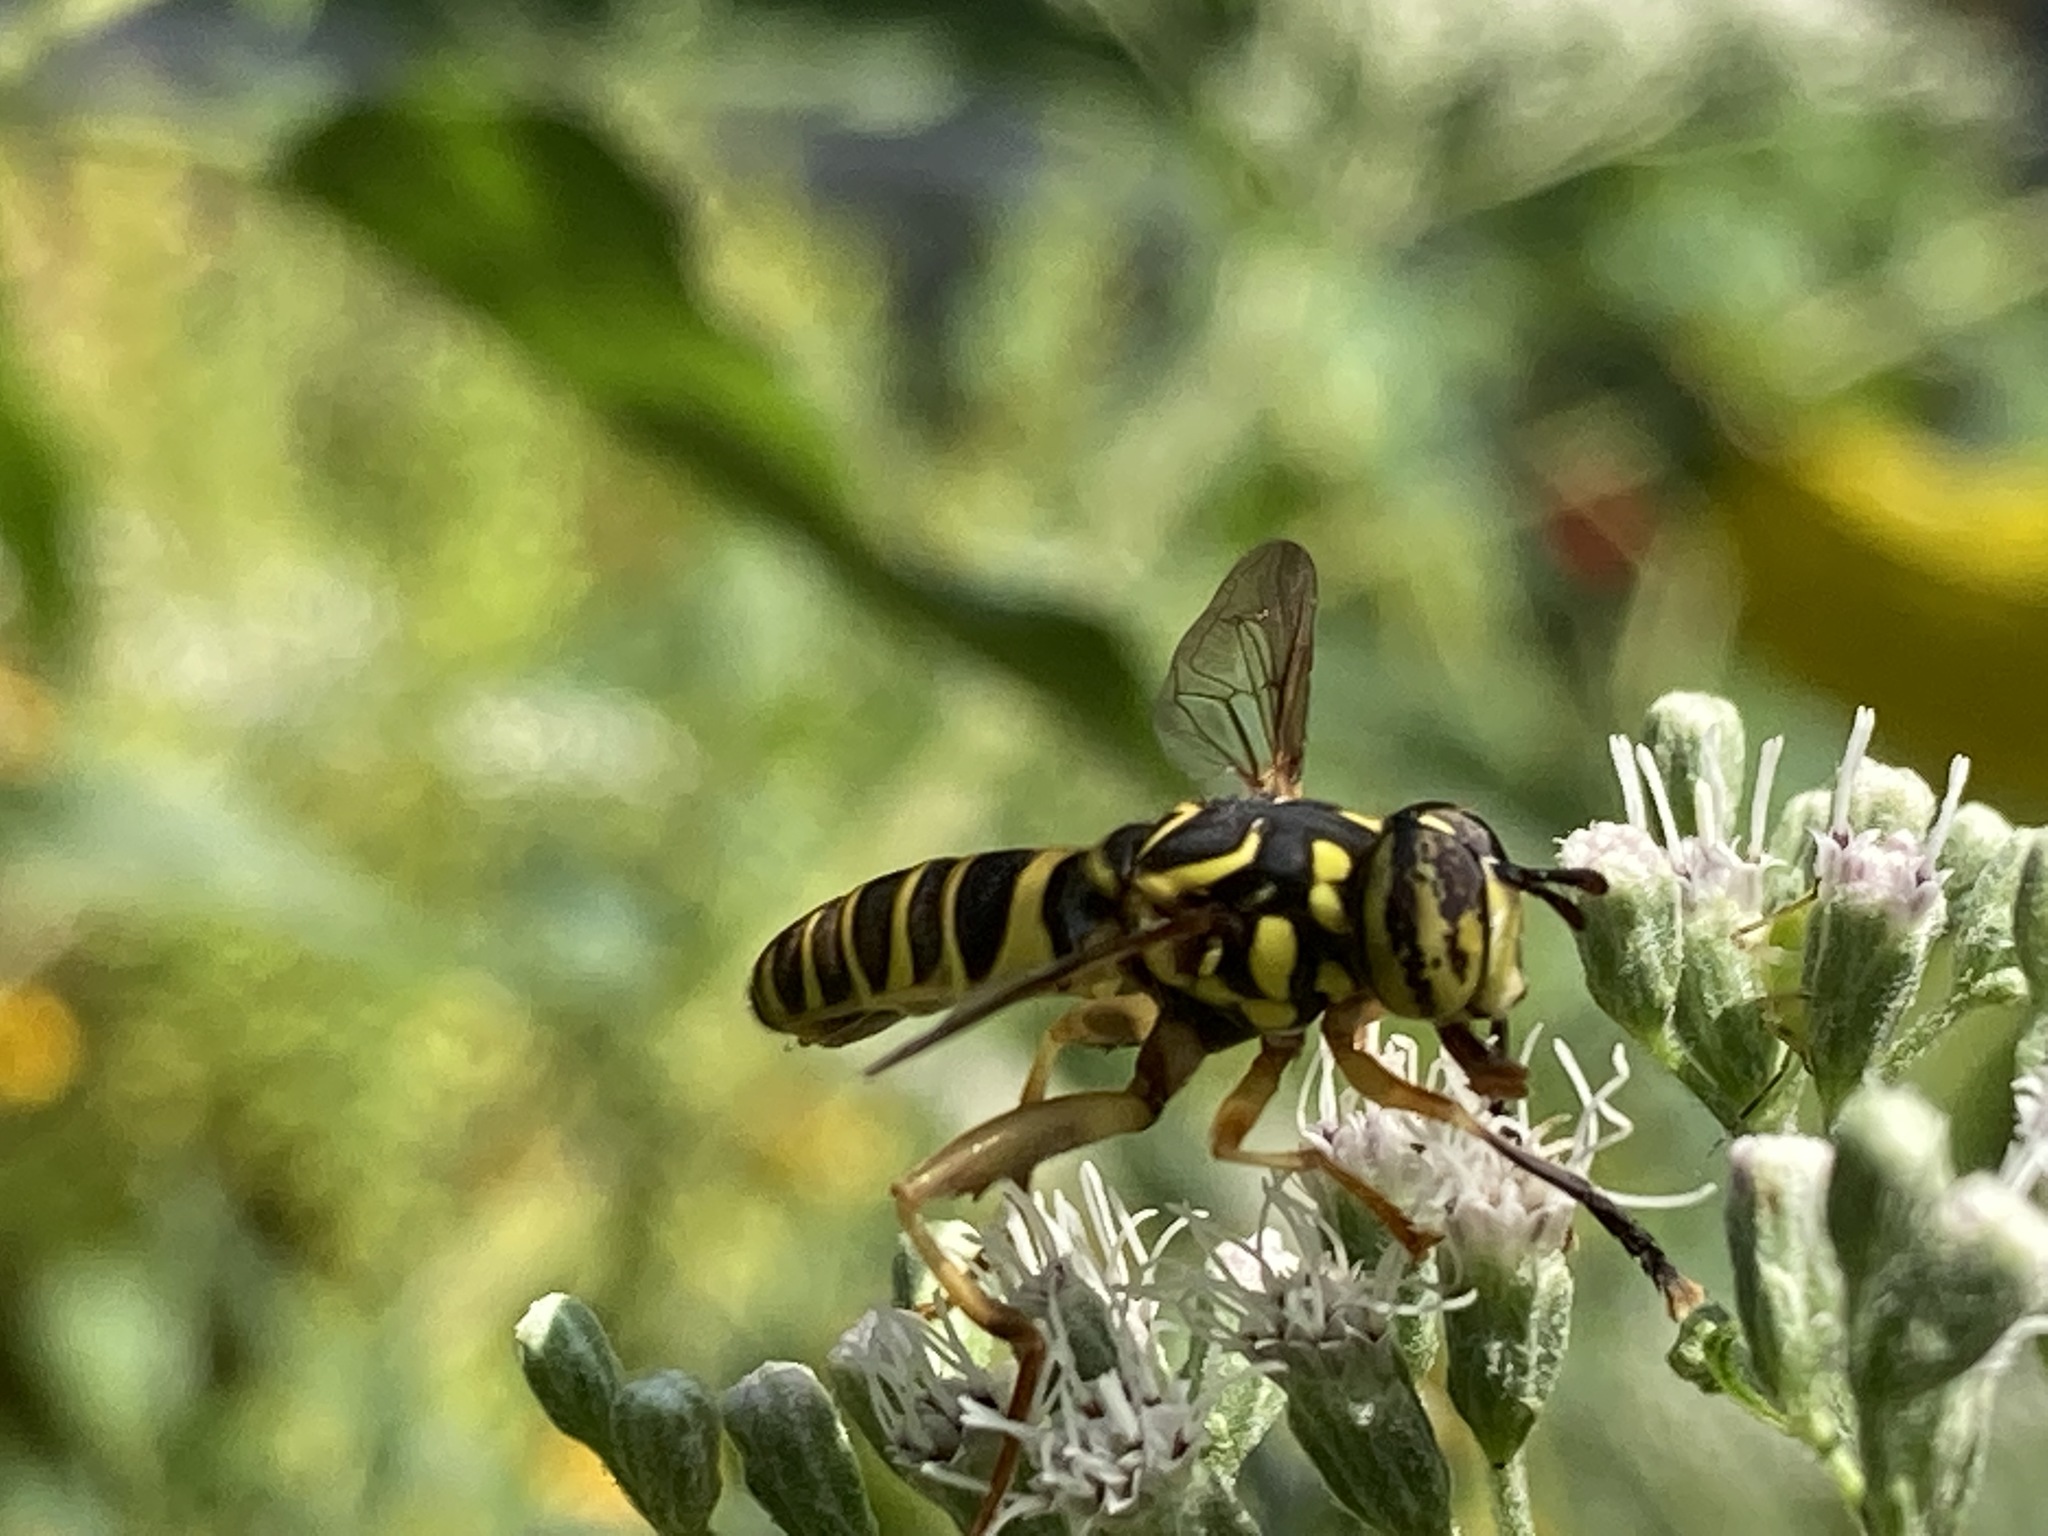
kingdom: Animalia
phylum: Arthropoda
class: Insecta
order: Diptera
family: Syrphidae
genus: Spilomyia
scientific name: Spilomyia longicornis
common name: Eastern hornet fly
